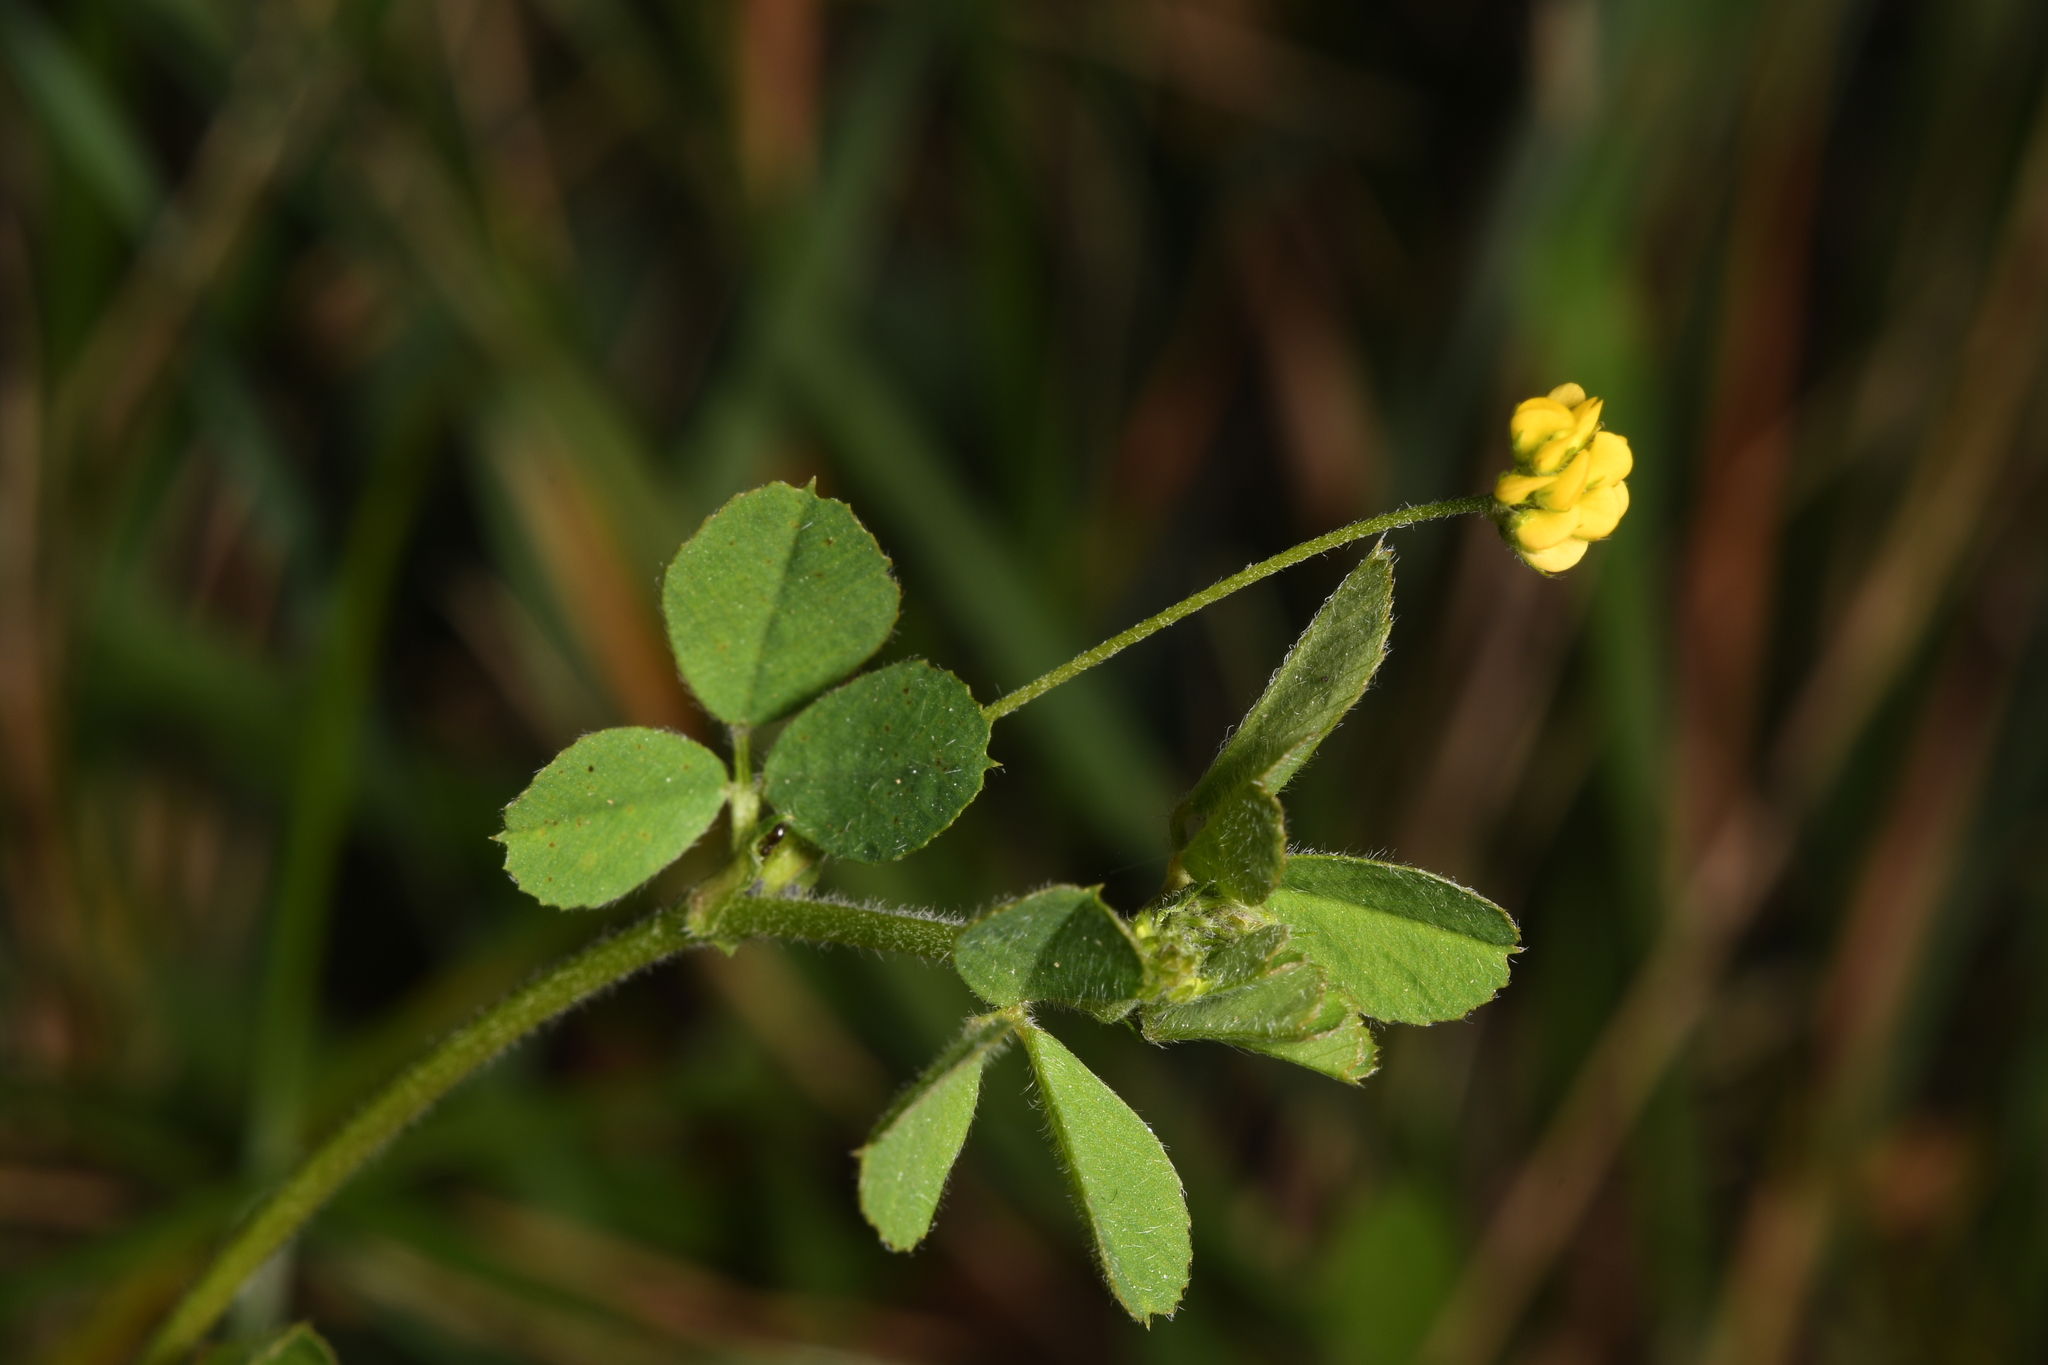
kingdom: Plantae
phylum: Tracheophyta
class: Magnoliopsida
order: Fabales
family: Fabaceae
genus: Medicago
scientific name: Medicago lupulina
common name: Black medick
